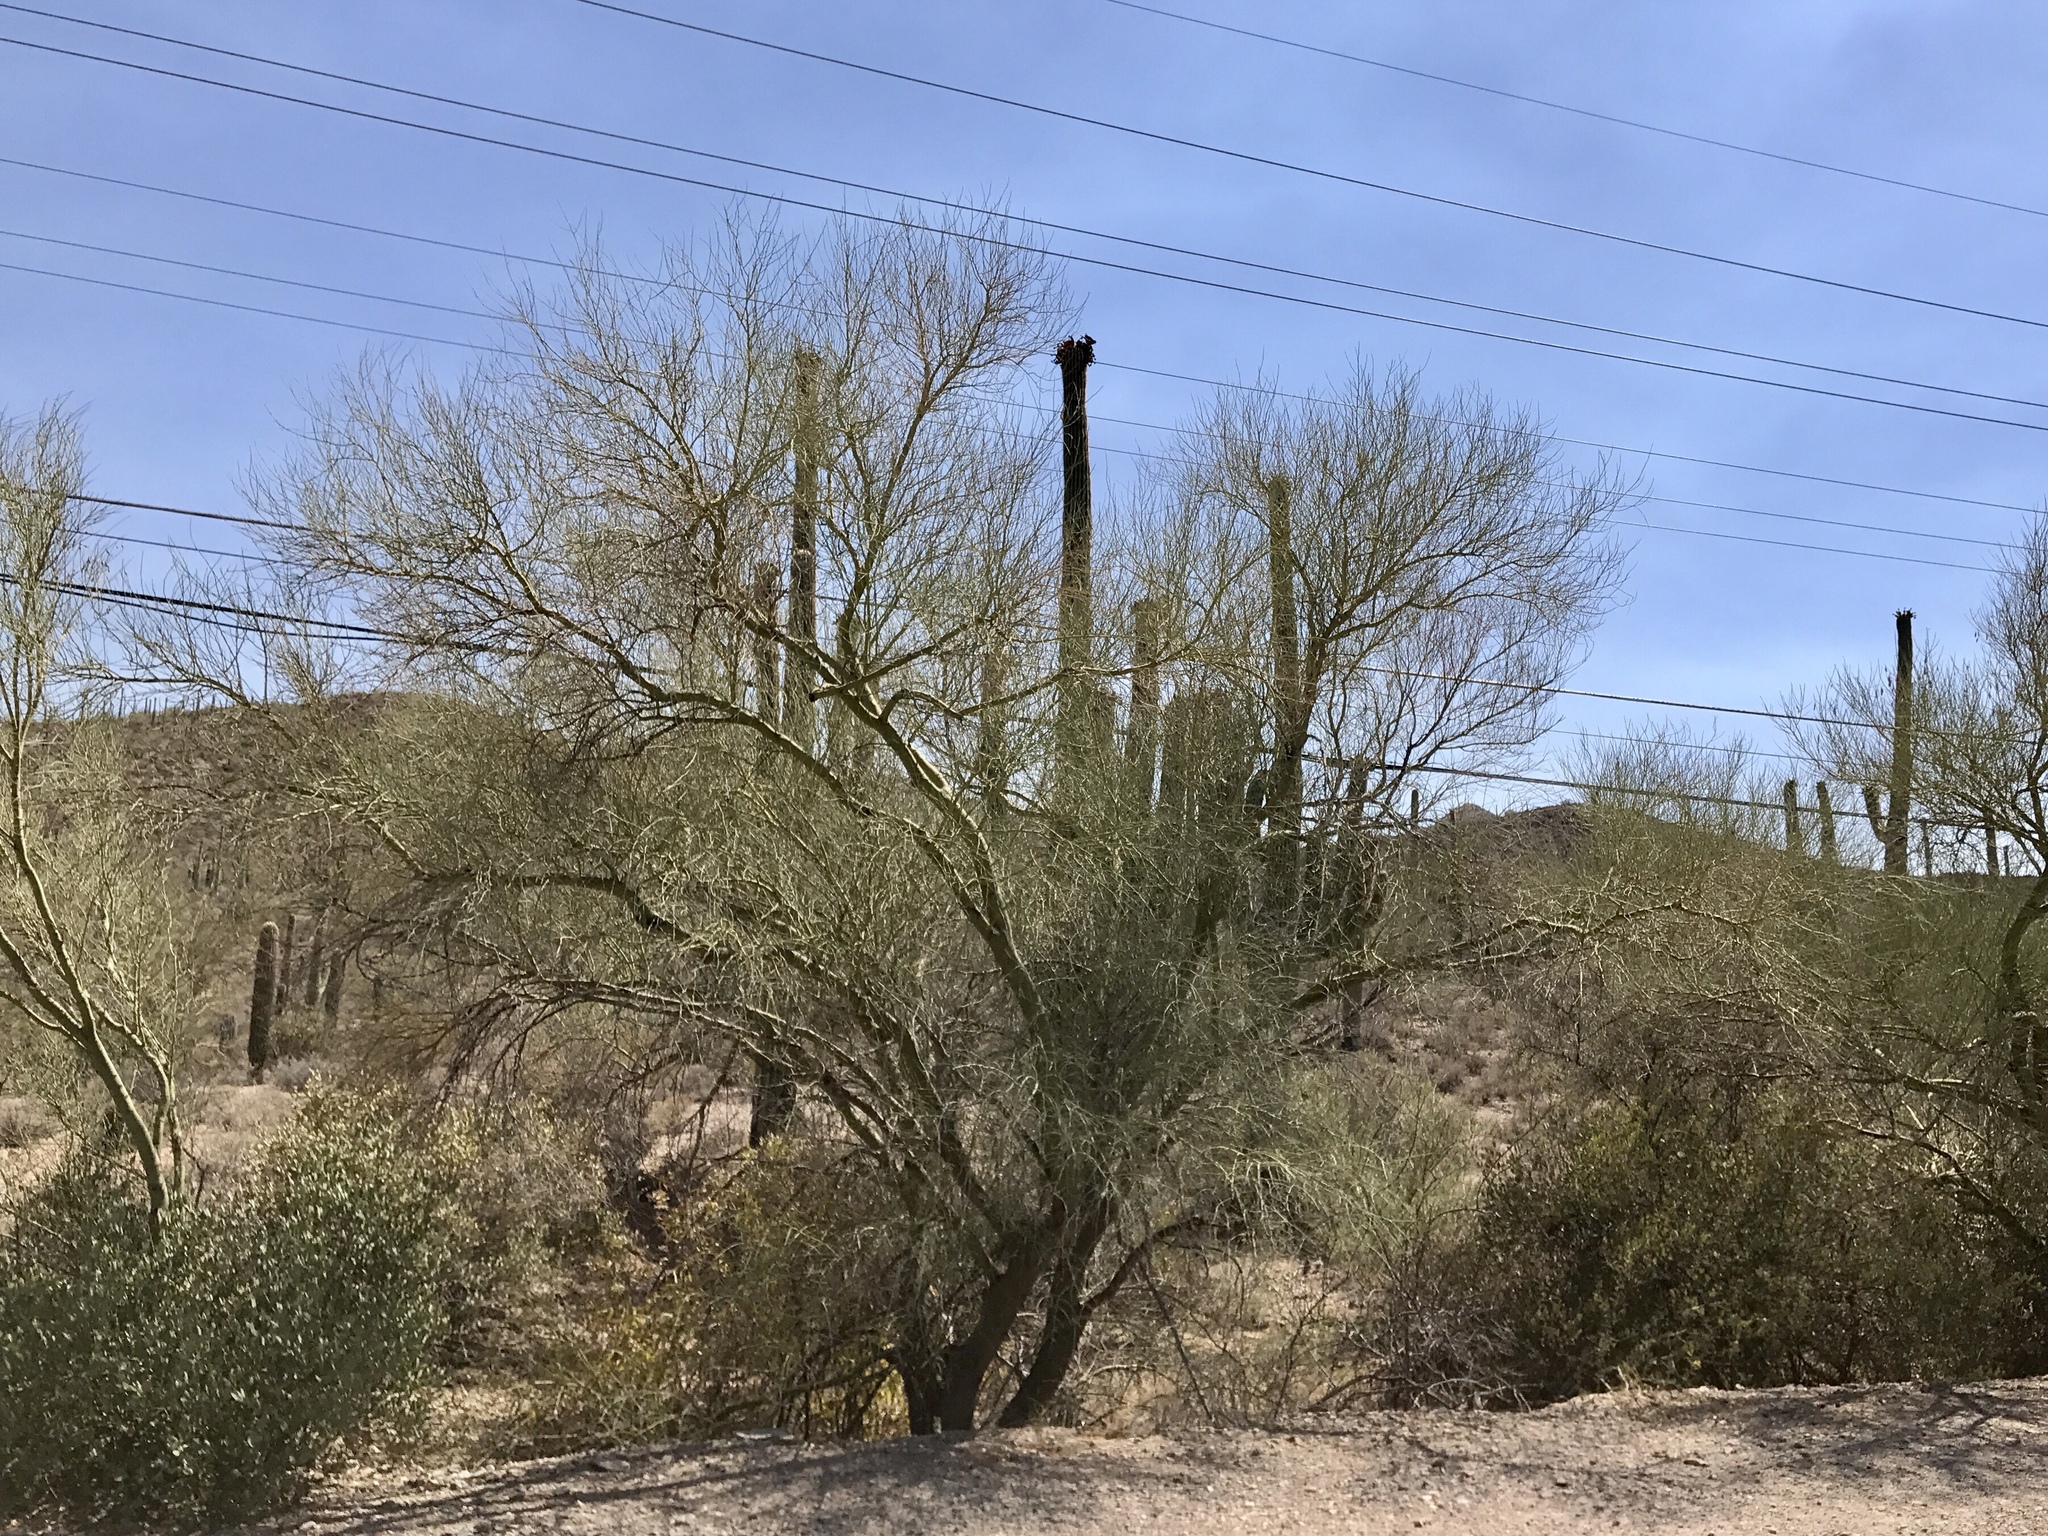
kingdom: Plantae
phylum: Tracheophyta
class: Magnoliopsida
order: Fabales
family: Fabaceae
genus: Parkinsonia
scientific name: Parkinsonia florida
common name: Blue paloverde
